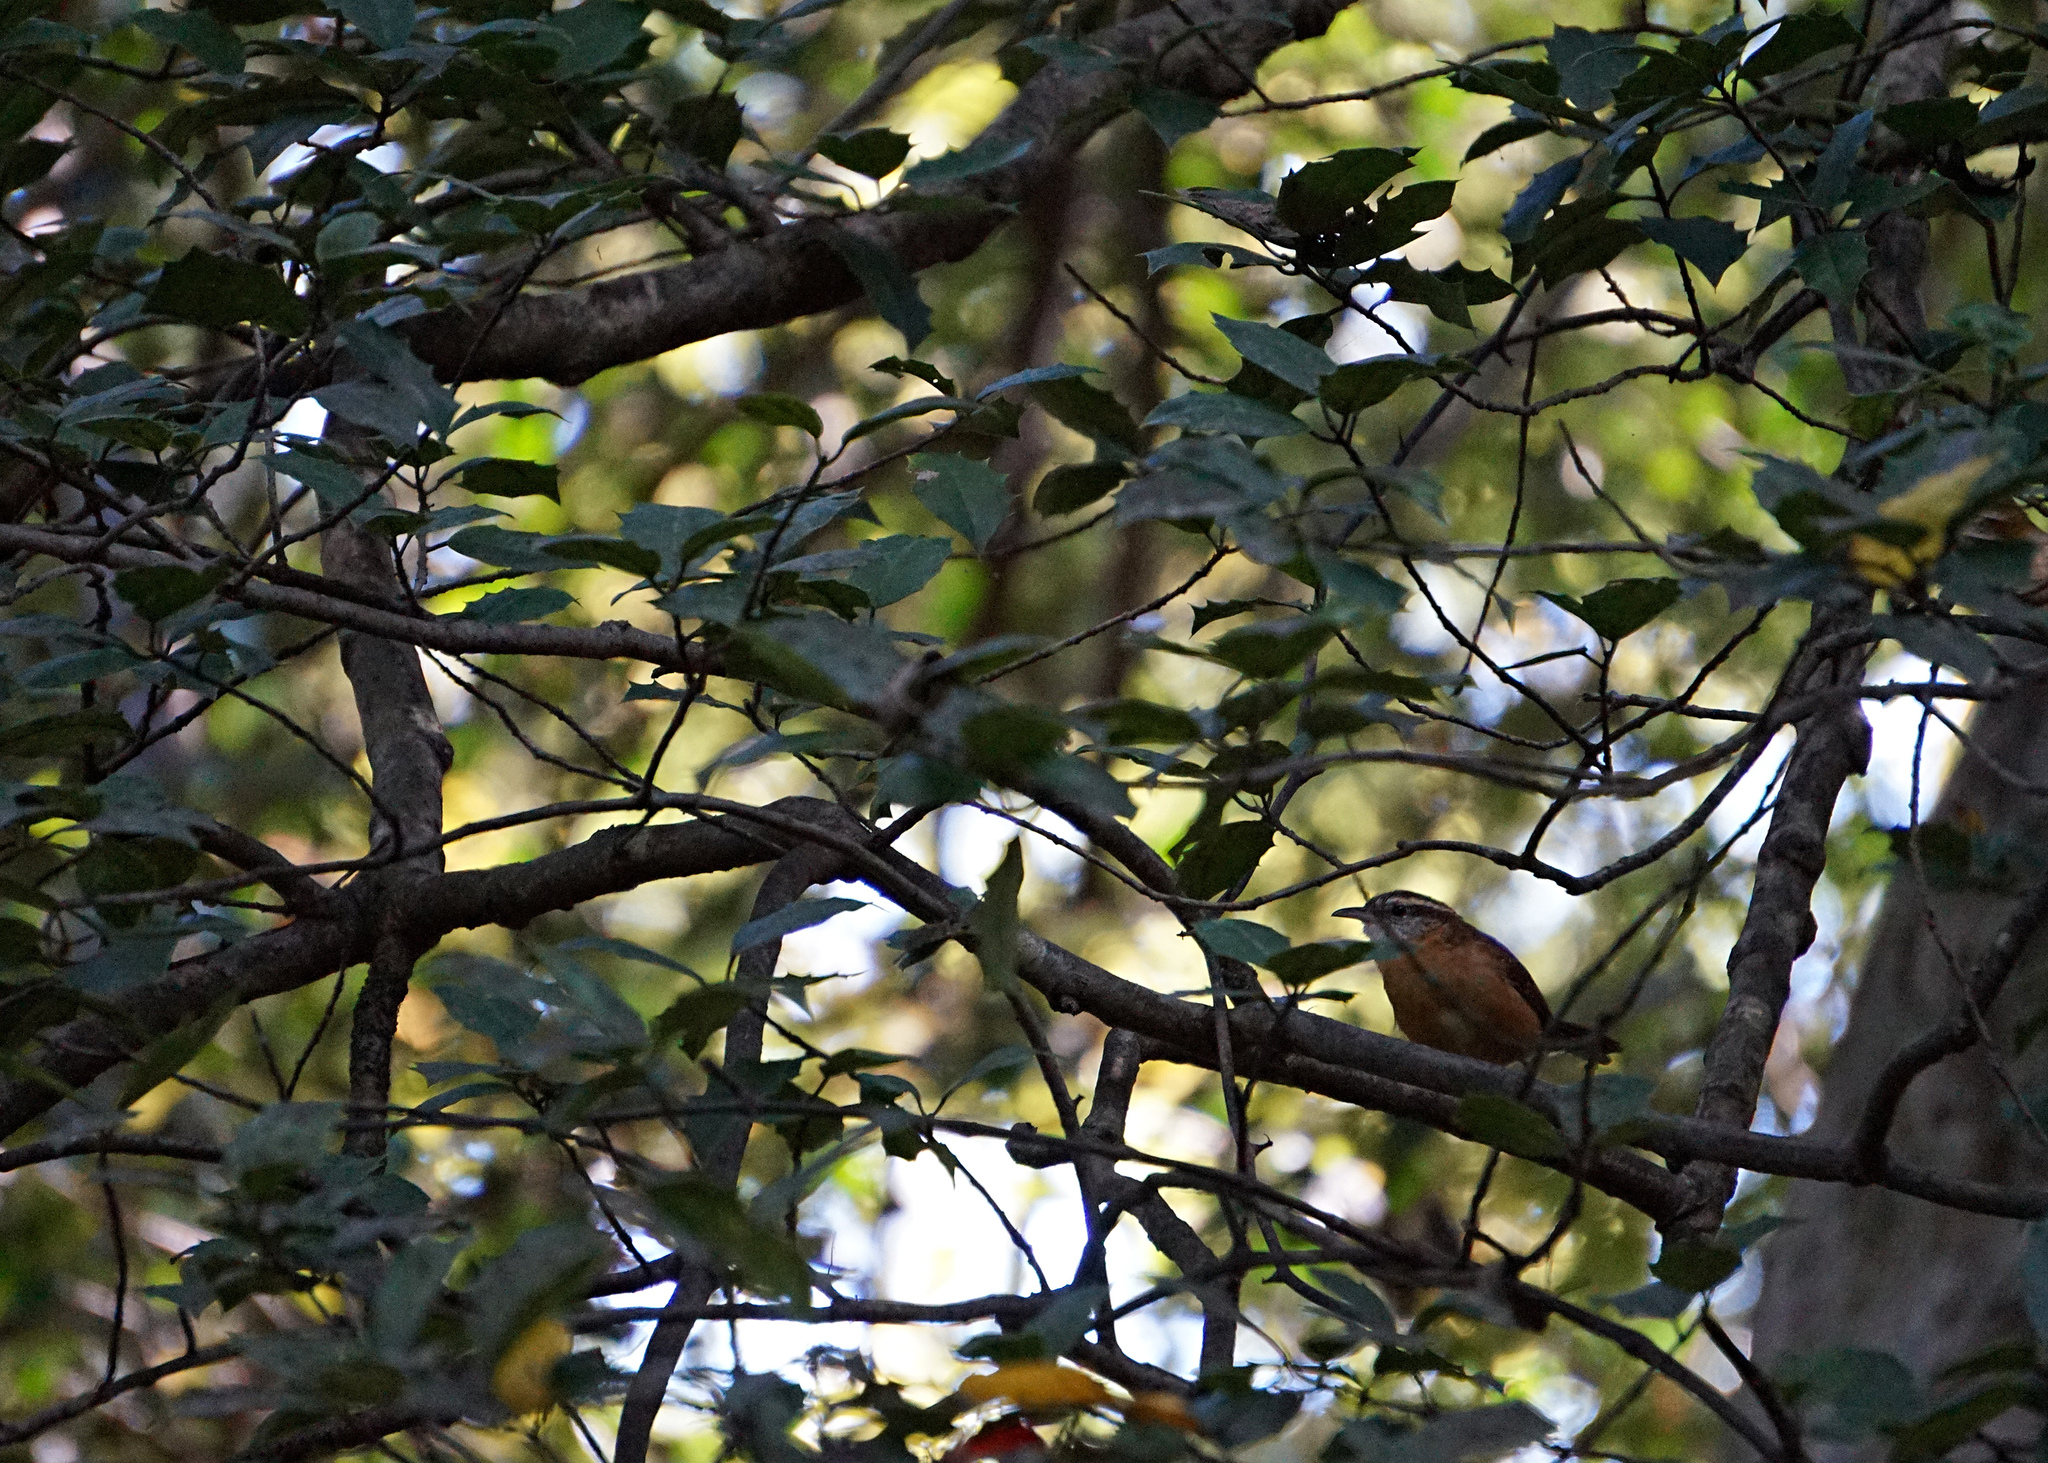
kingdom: Animalia
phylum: Chordata
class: Aves
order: Passeriformes
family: Troglodytidae
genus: Thryothorus
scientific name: Thryothorus ludovicianus
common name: Carolina wren
